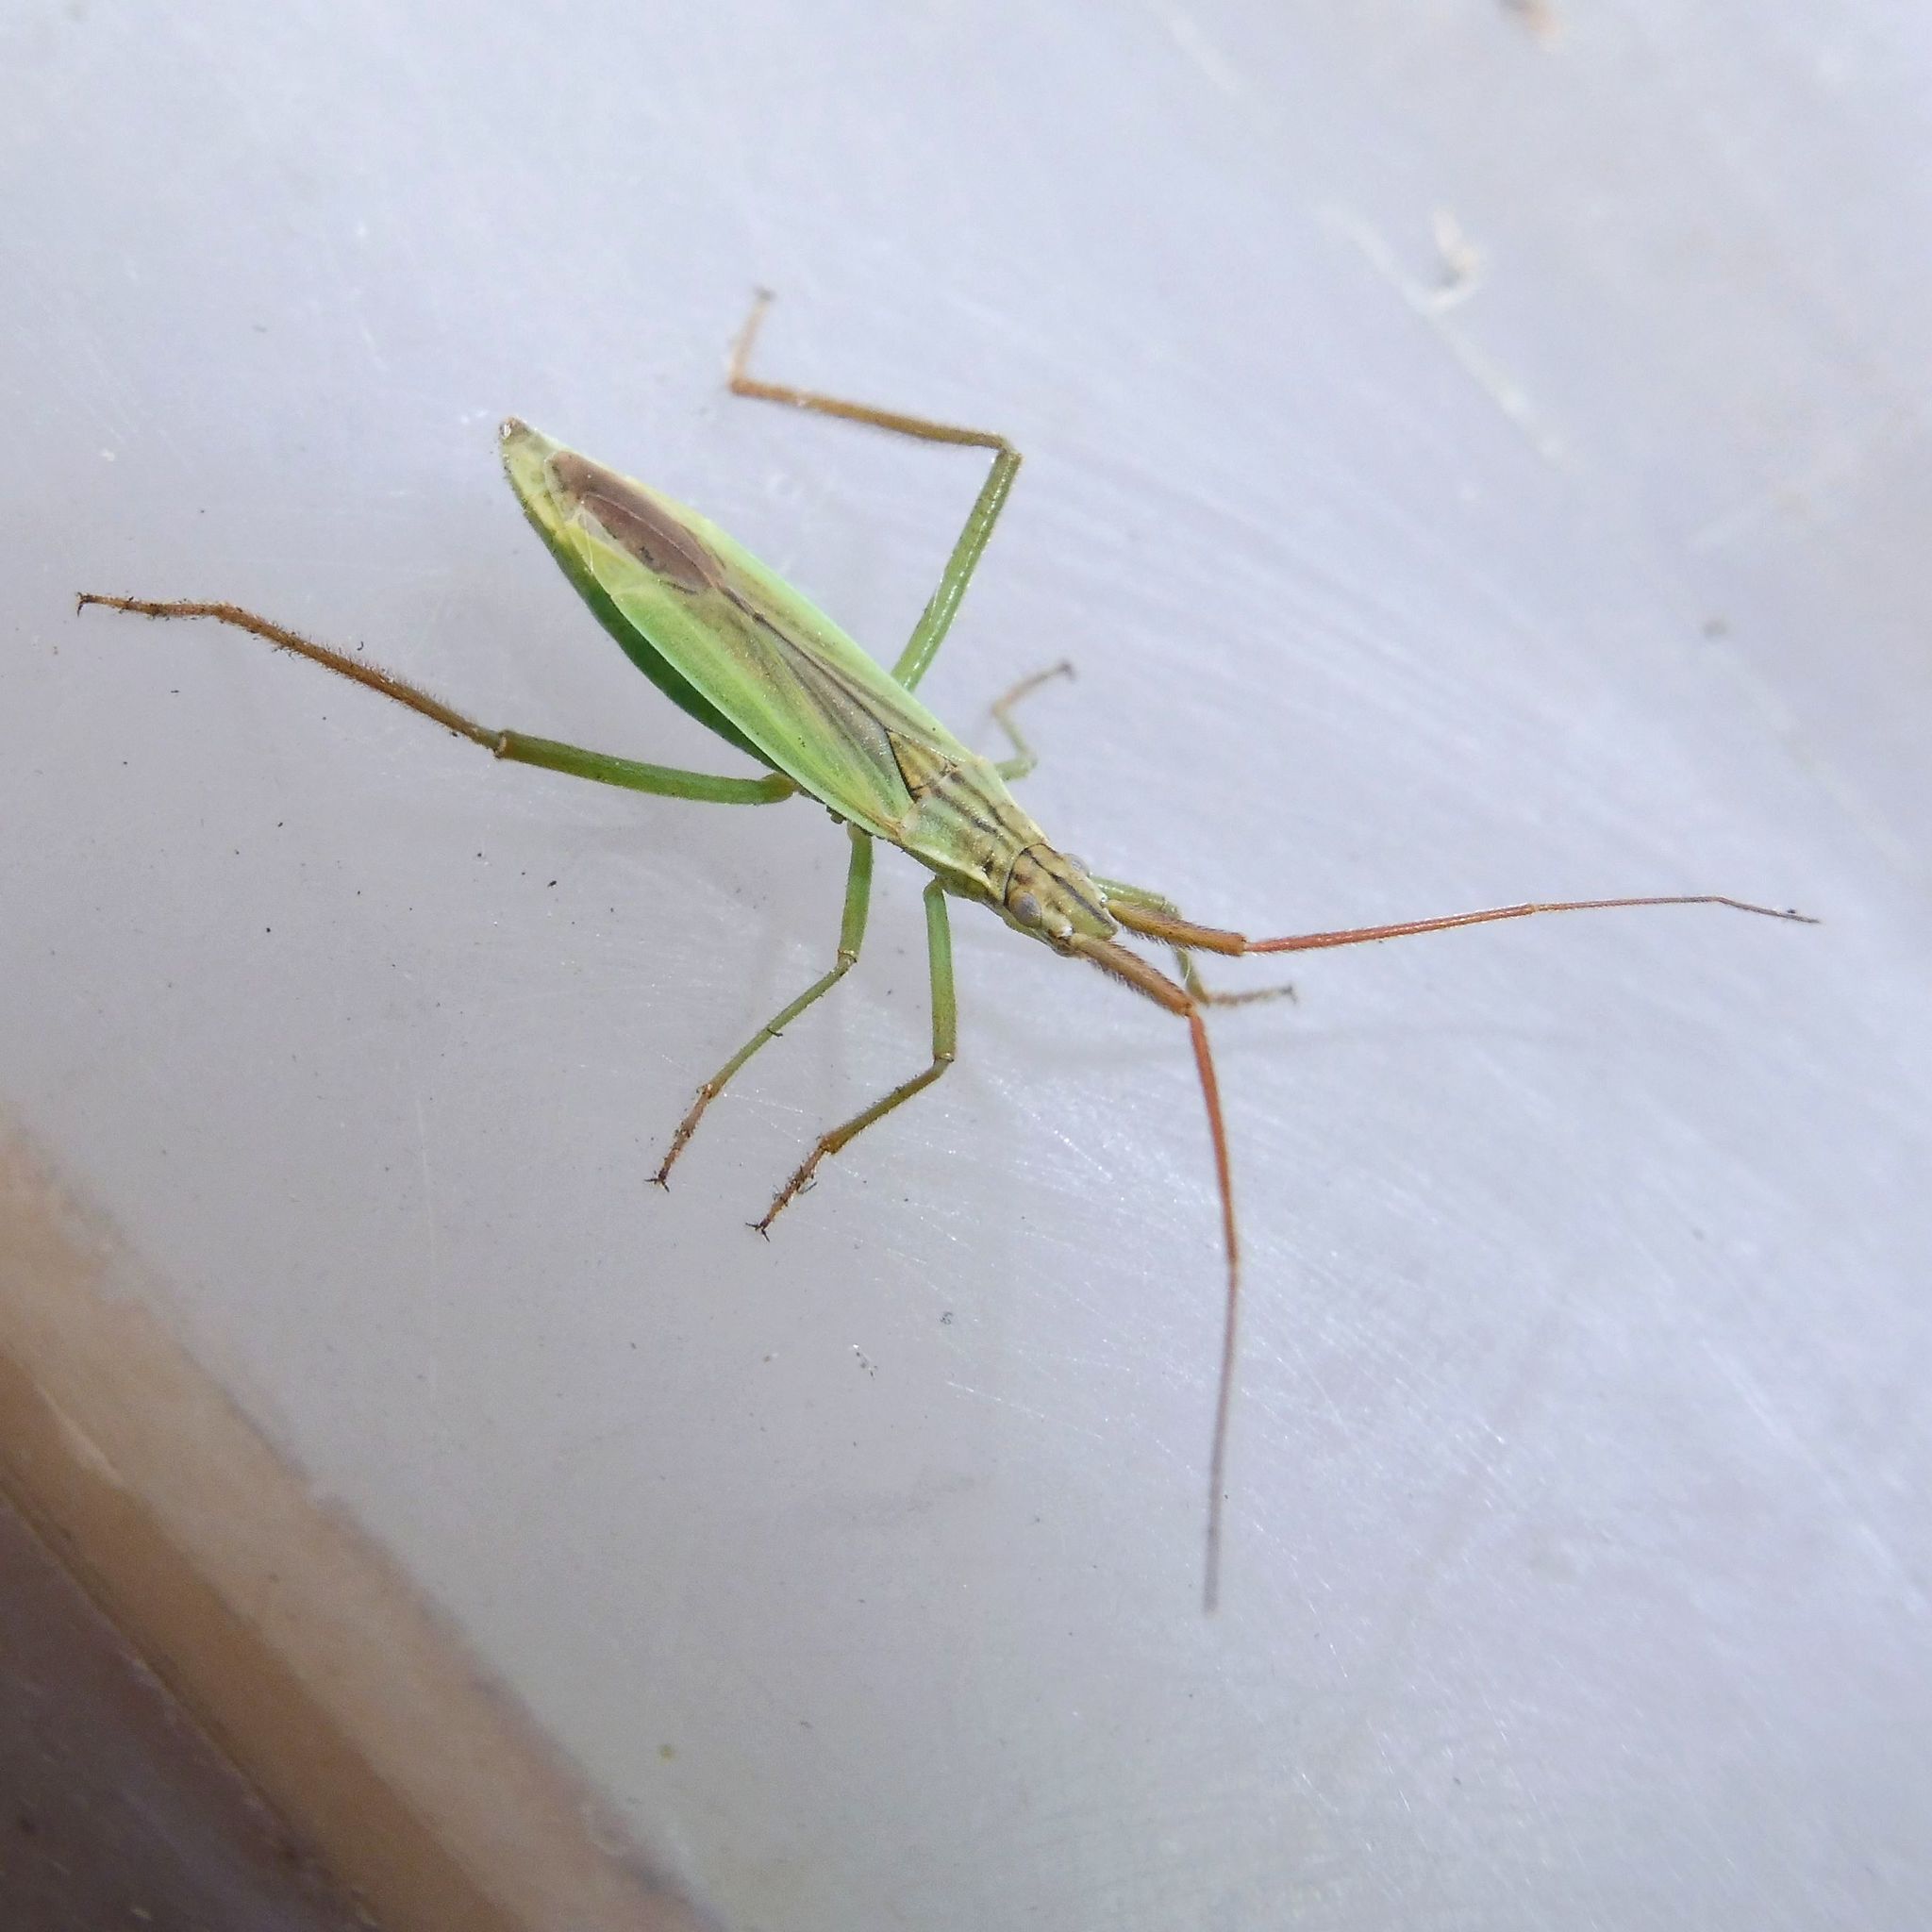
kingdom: Animalia
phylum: Arthropoda
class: Insecta
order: Hemiptera
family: Miridae
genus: Notostira
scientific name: Notostira elongata
